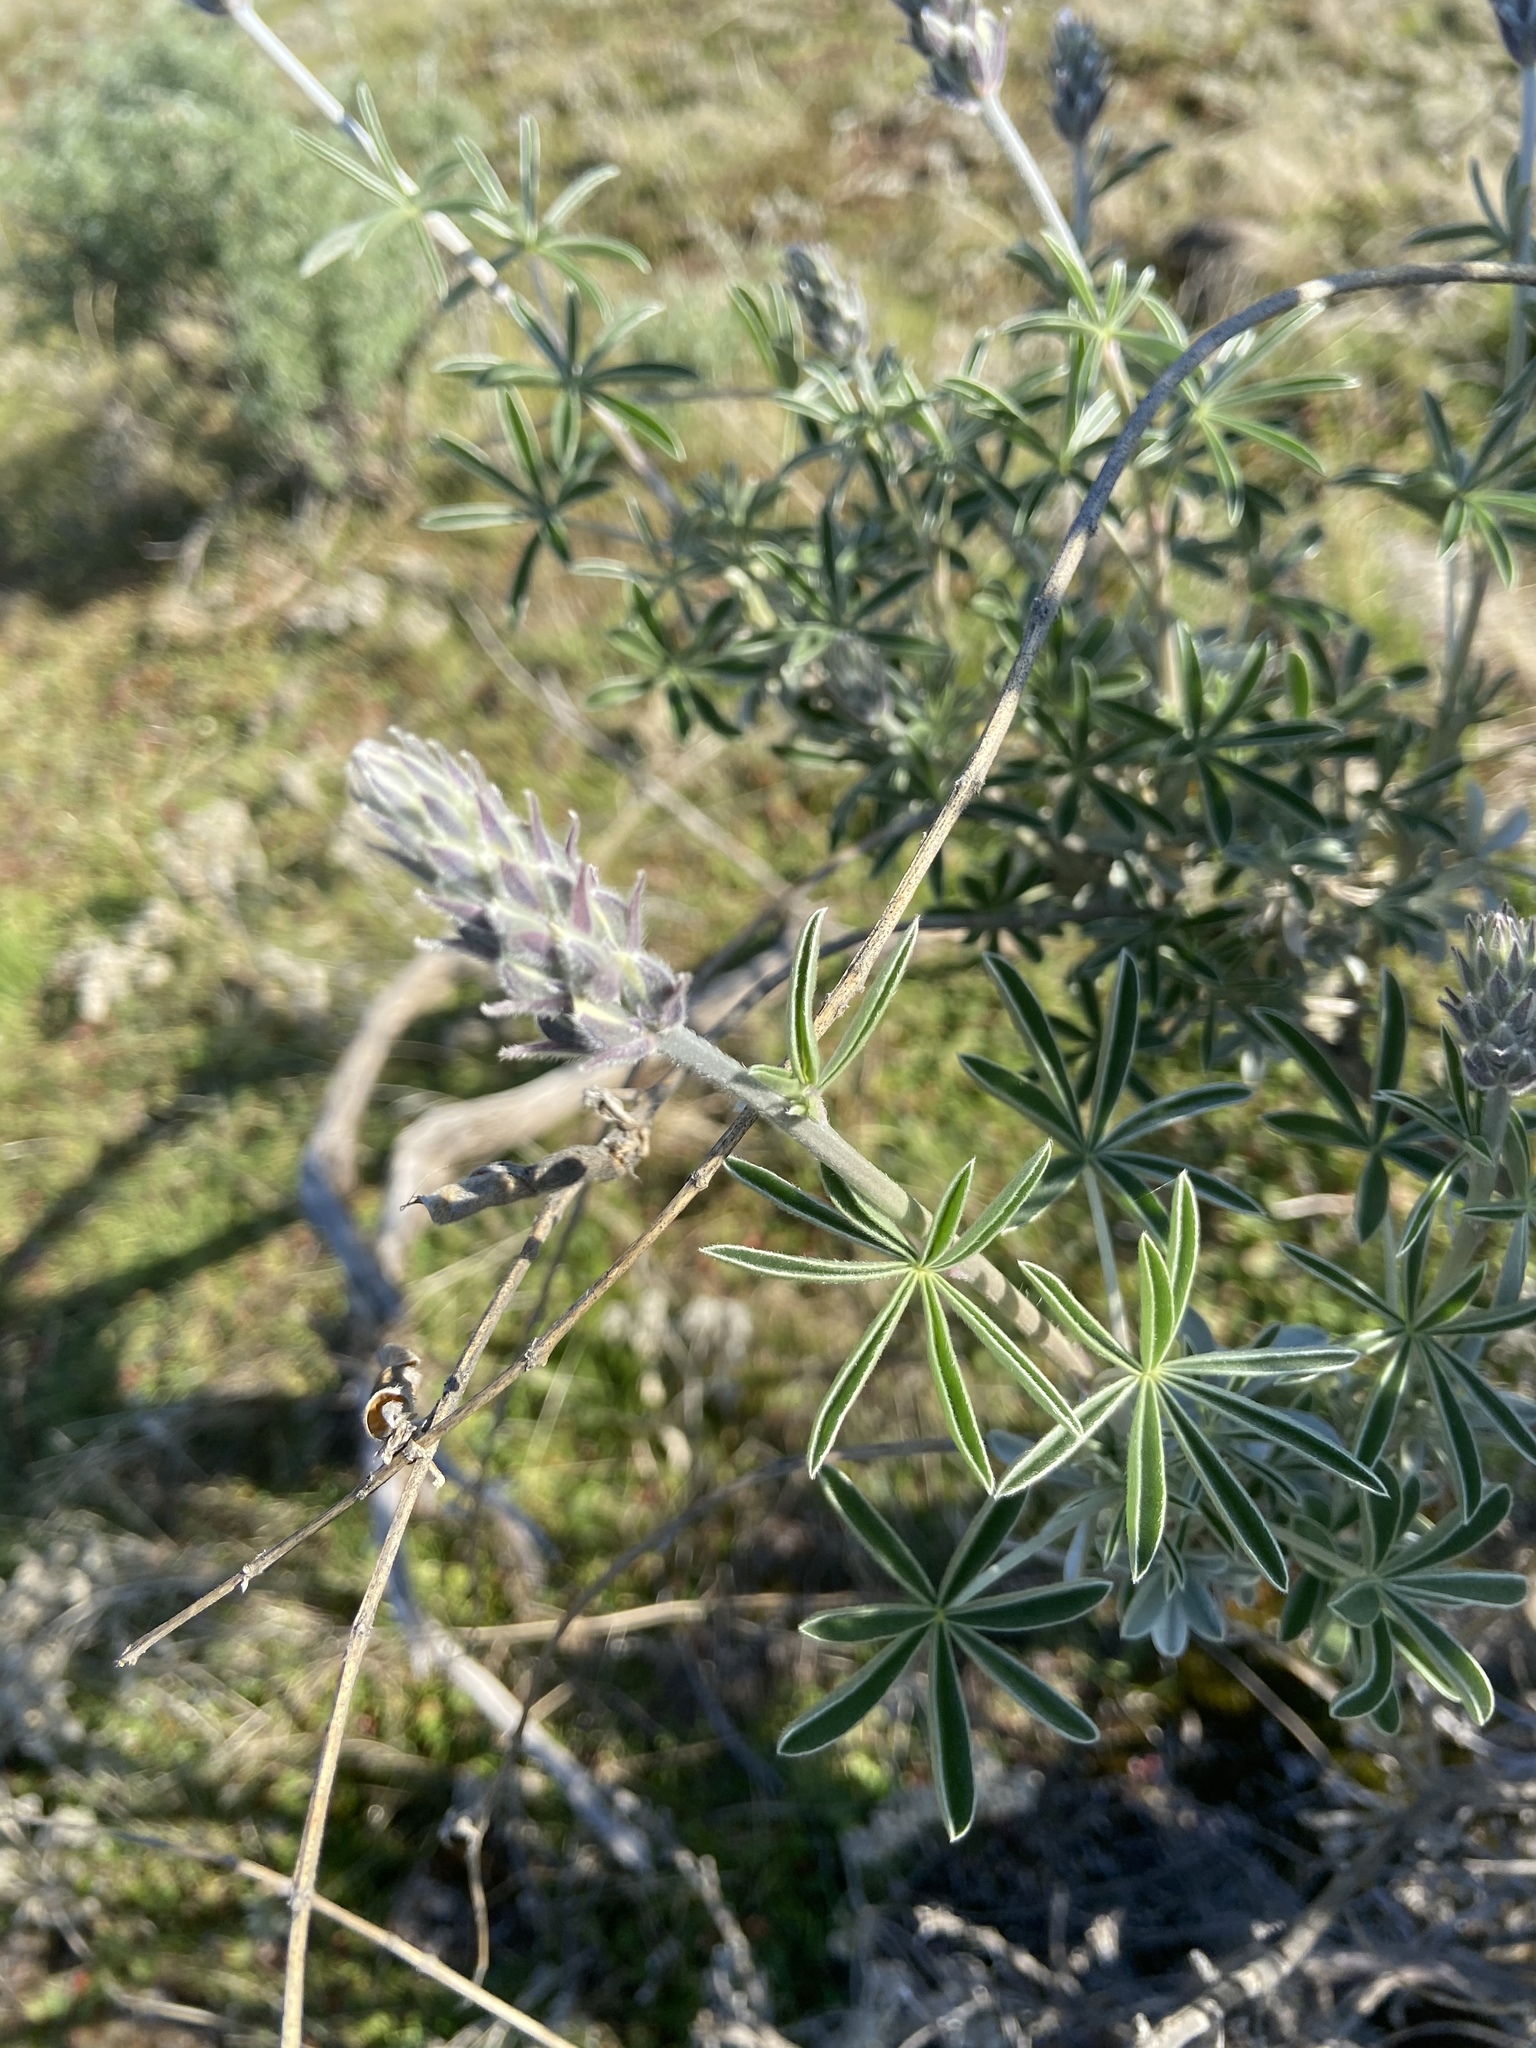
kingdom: Plantae
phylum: Tracheophyta
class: Magnoliopsida
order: Fabales
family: Fabaceae
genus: Lupinus
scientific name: Lupinus albifrons
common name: Foothill lupine
